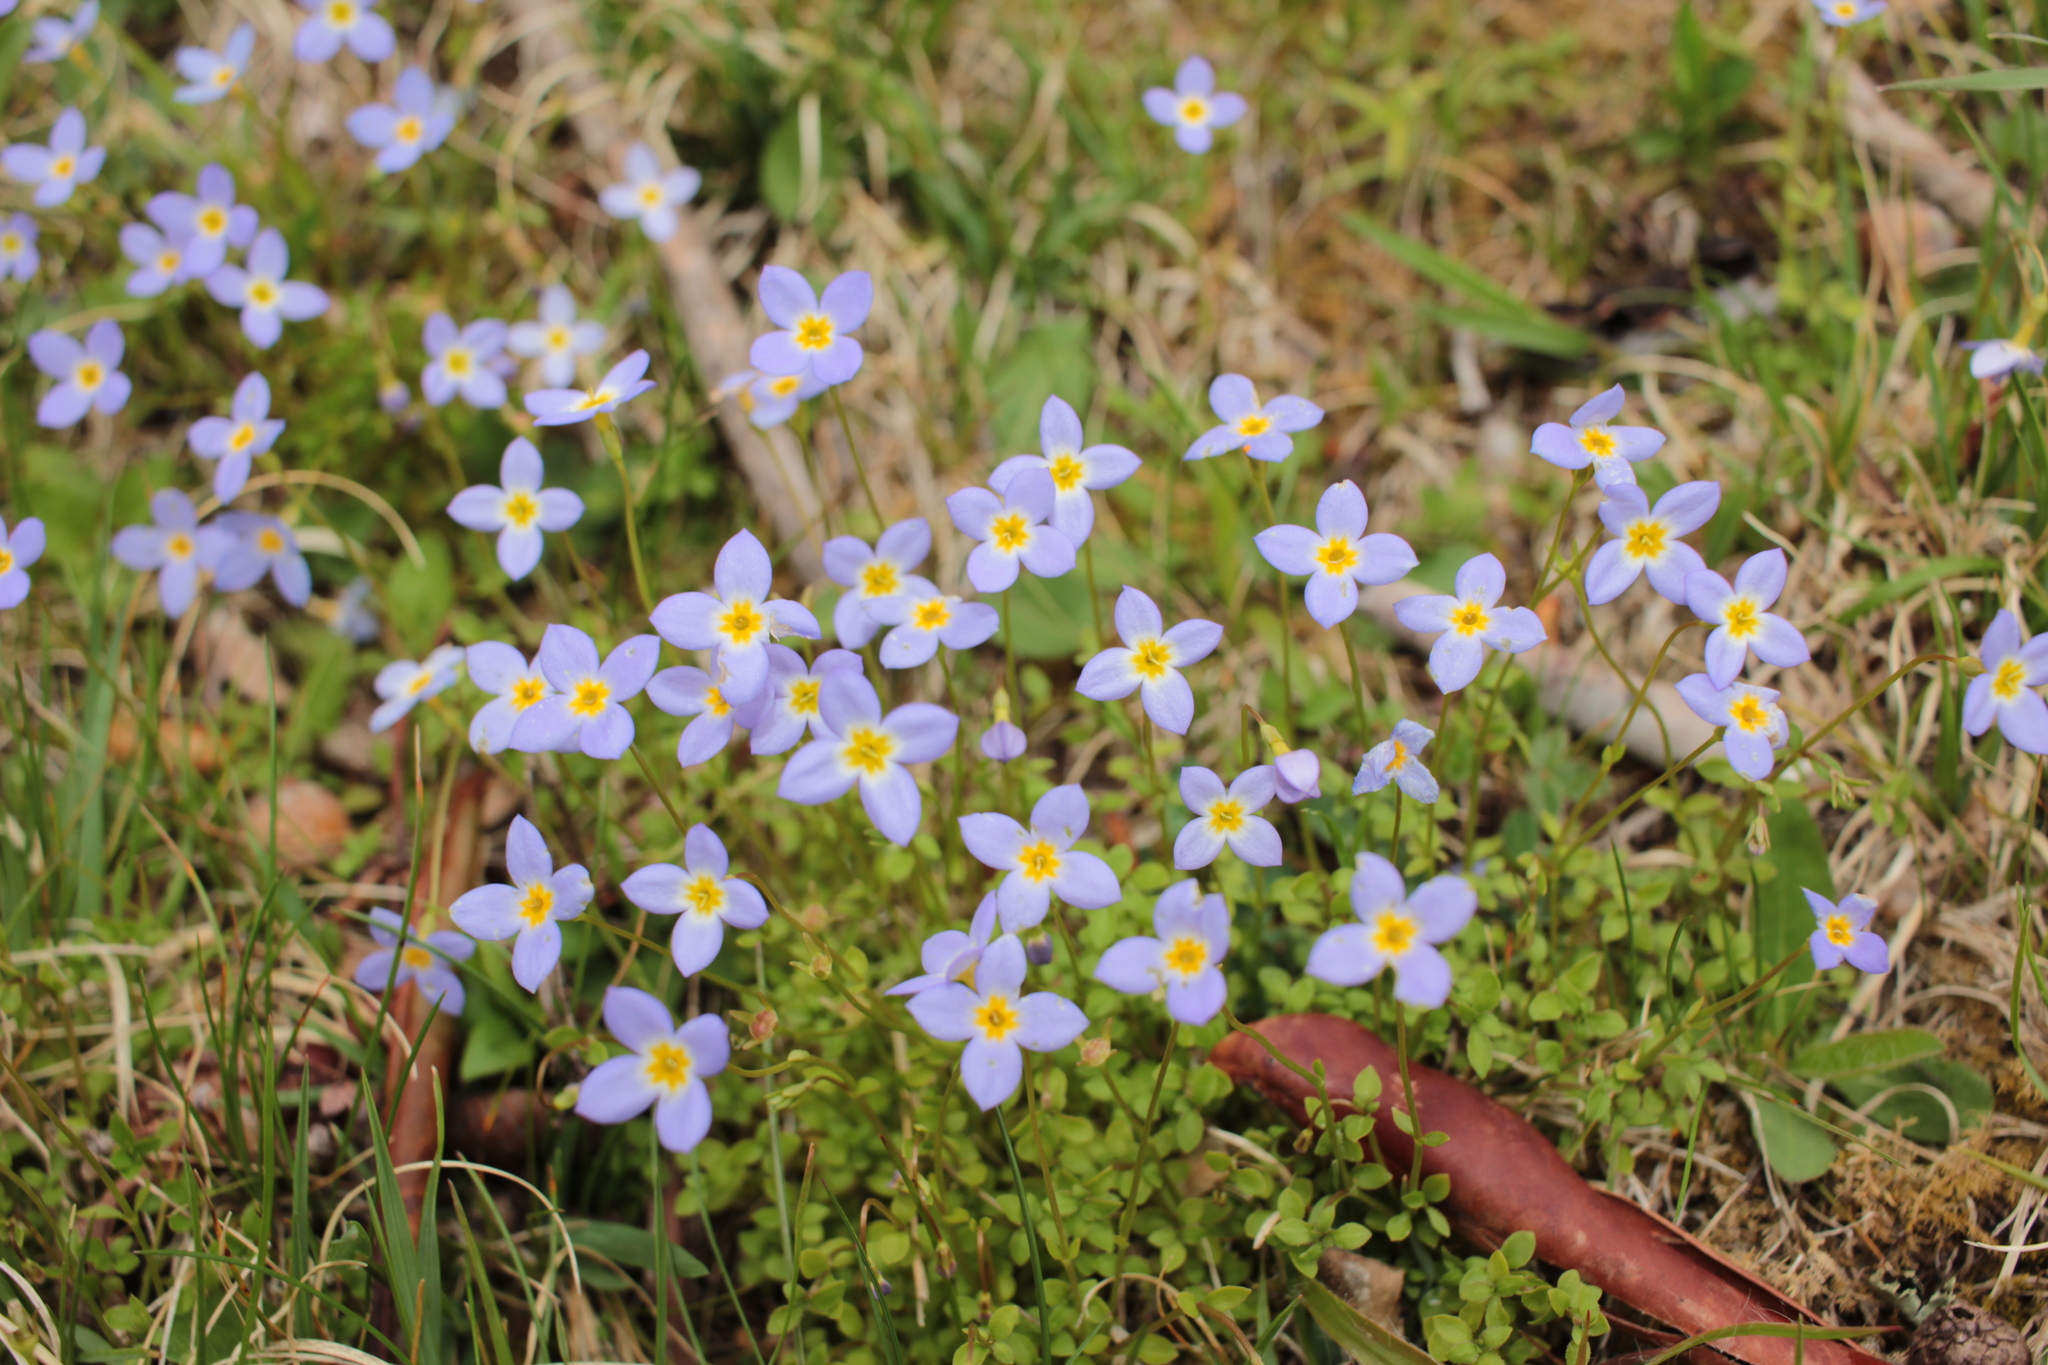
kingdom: Plantae
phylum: Tracheophyta
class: Magnoliopsida
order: Gentianales
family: Rubiaceae
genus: Houstonia
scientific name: Houstonia serpyllifolia
